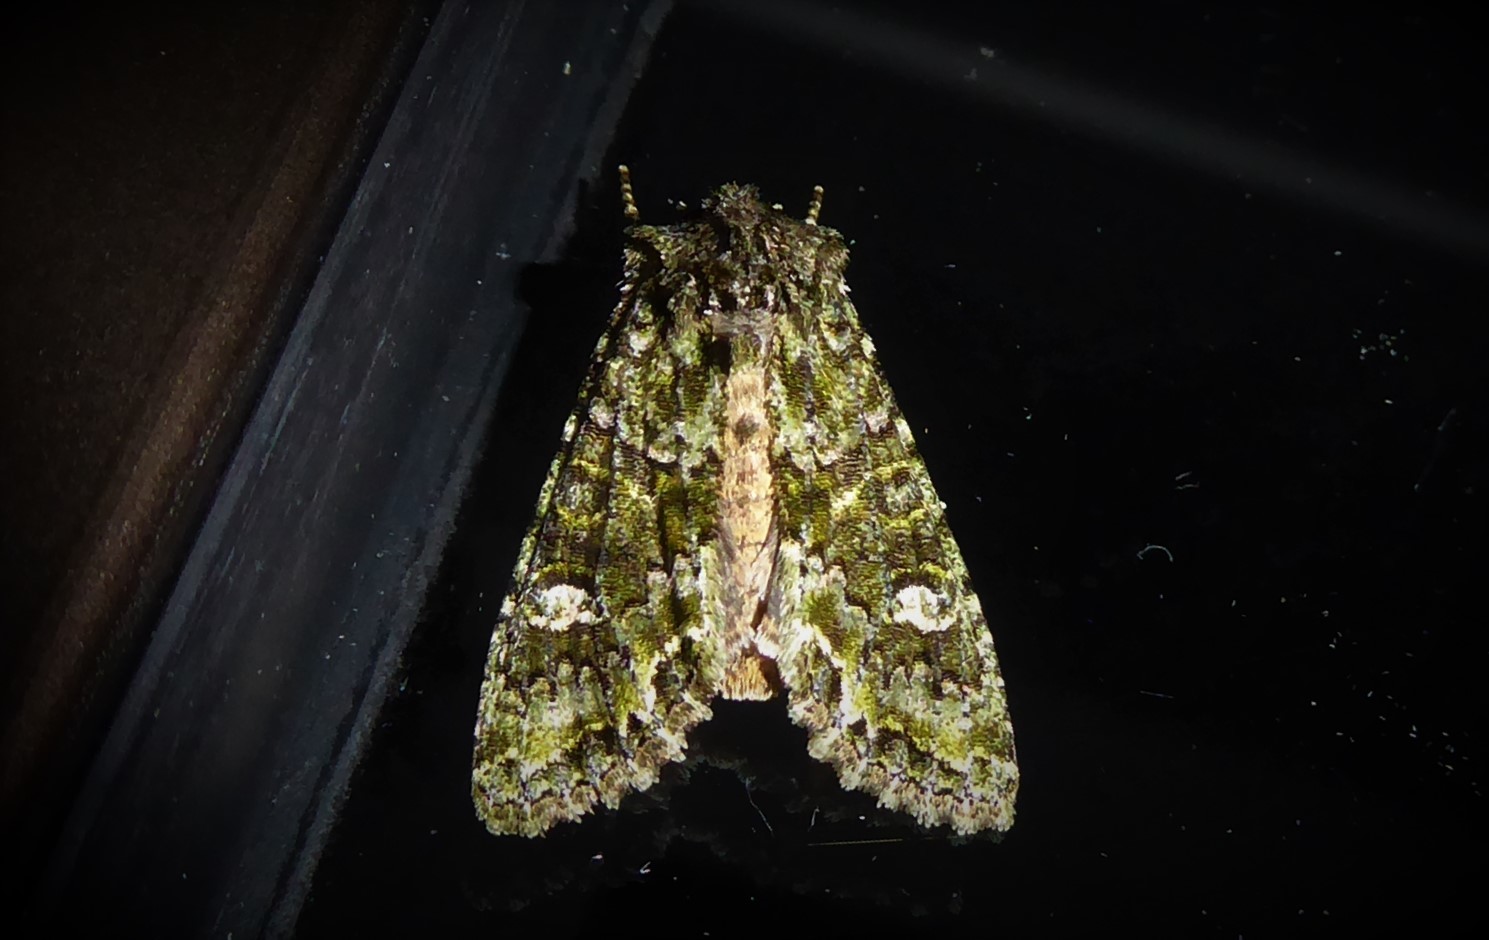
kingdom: Animalia
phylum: Arthropoda
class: Insecta
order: Lepidoptera
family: Noctuidae
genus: Ichneutica
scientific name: Ichneutica
